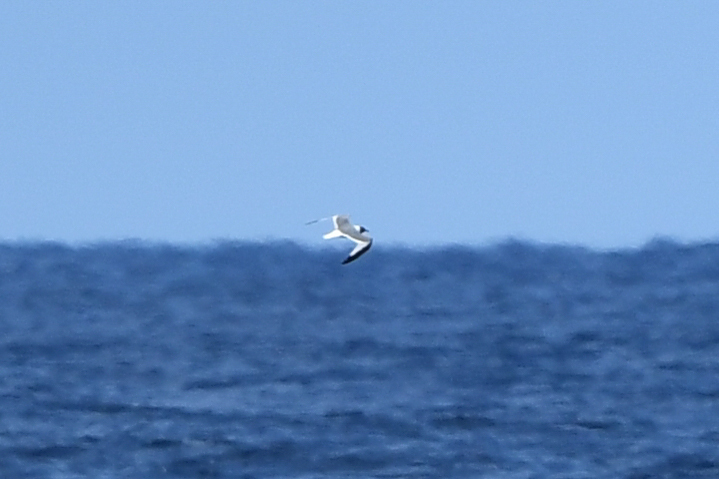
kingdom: Animalia
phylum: Chordata
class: Aves
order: Charadriiformes
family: Laridae
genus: Xema
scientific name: Xema sabini
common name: Sabine's gull
